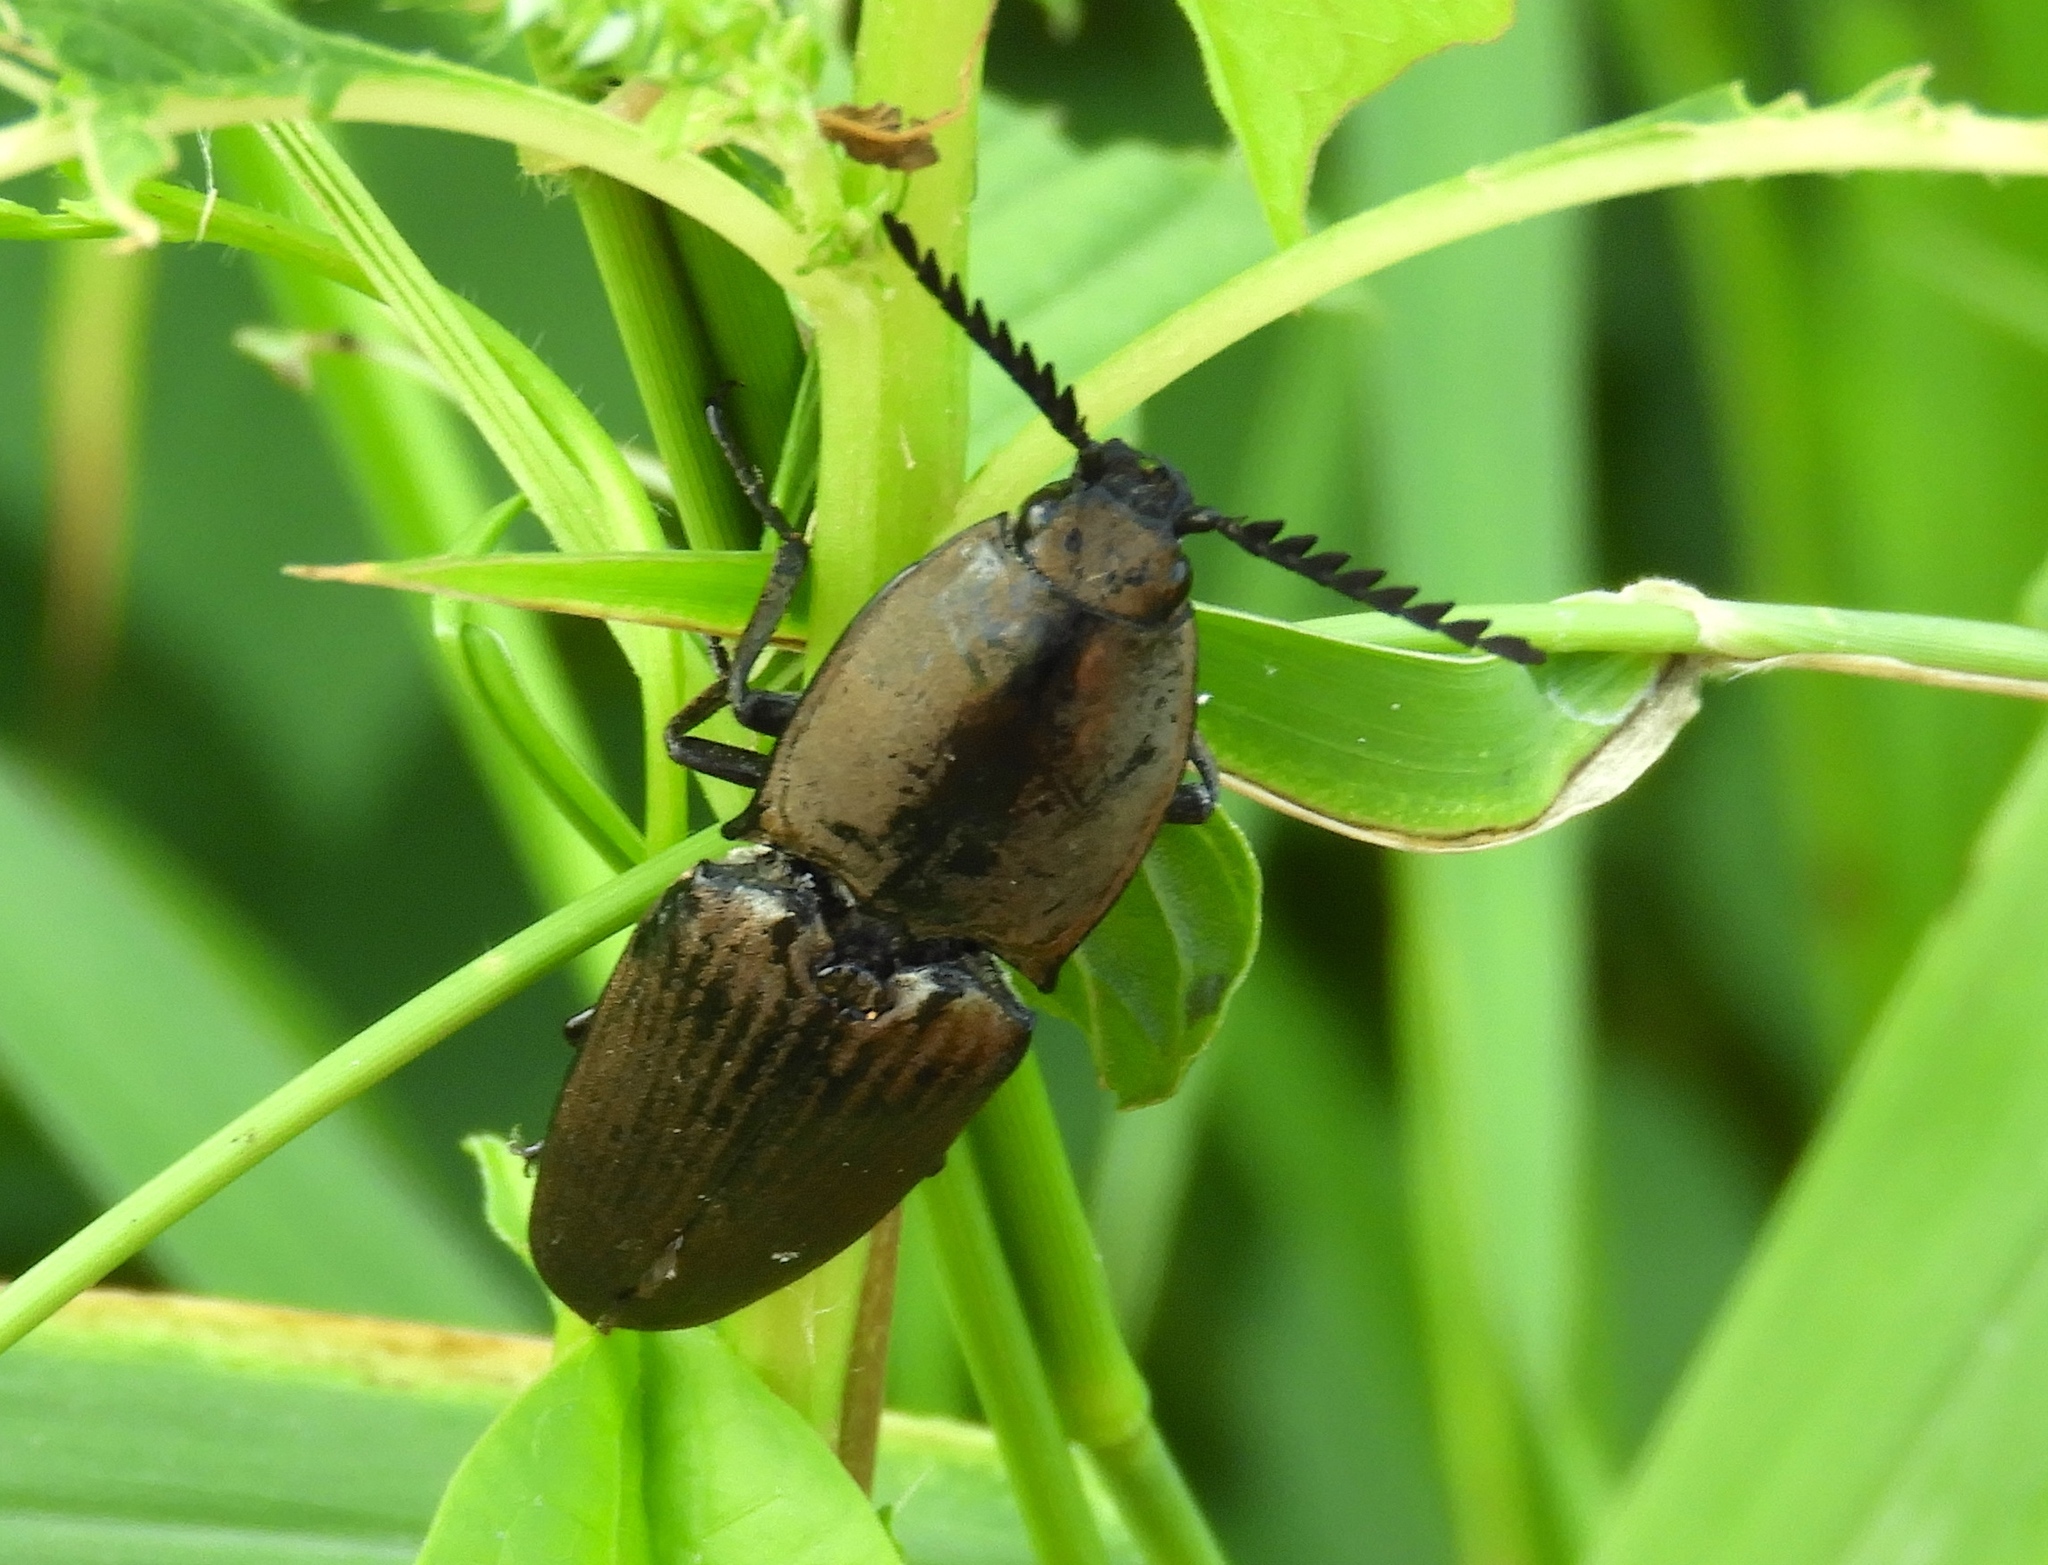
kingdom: Animalia
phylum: Arthropoda
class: Insecta
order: Coleoptera
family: Elateridae
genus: Chalcolepidius
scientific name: Chalcolepidius
